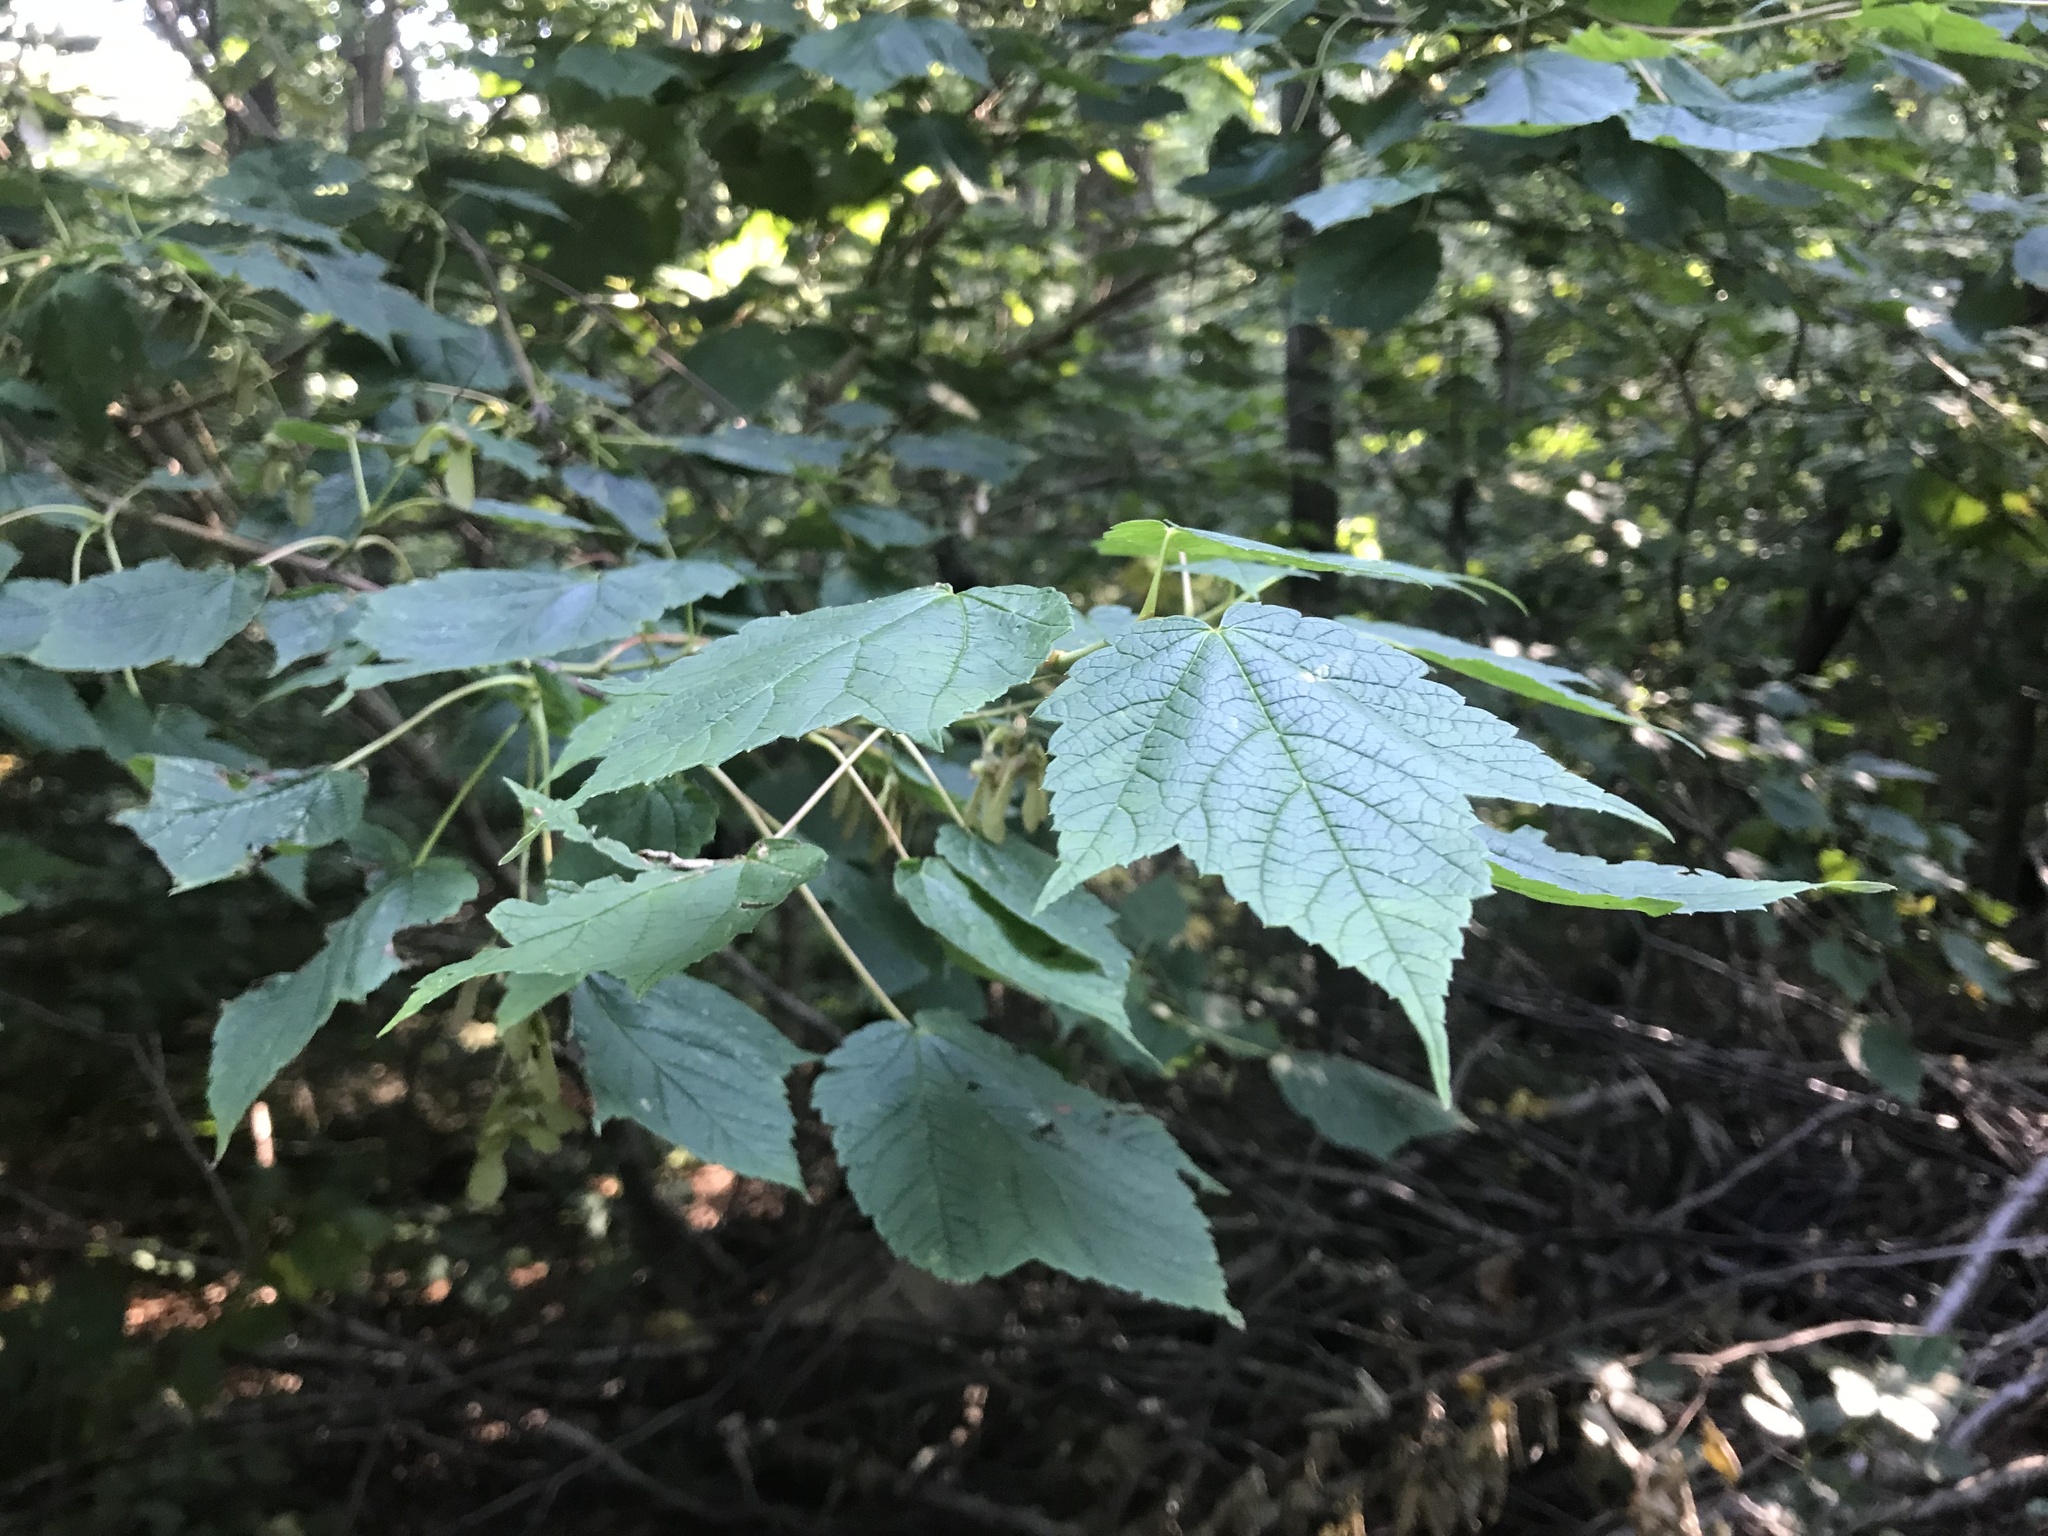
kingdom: Plantae
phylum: Tracheophyta
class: Magnoliopsida
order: Sapindales
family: Sapindaceae
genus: Acer
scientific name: Acer spicatum
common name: Mountain maple
